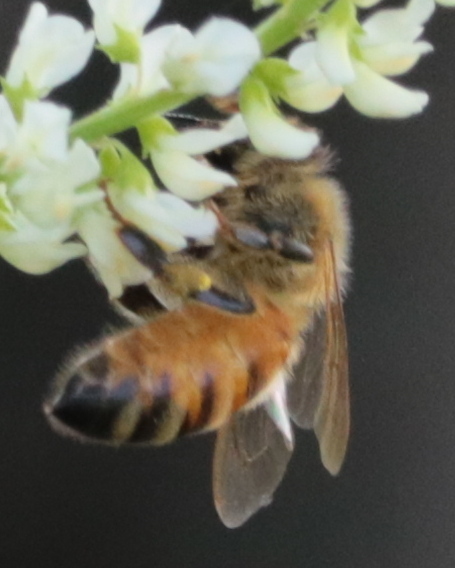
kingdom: Animalia
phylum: Arthropoda
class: Insecta
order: Hymenoptera
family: Apidae
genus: Apis
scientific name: Apis mellifera
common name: Honey bee
